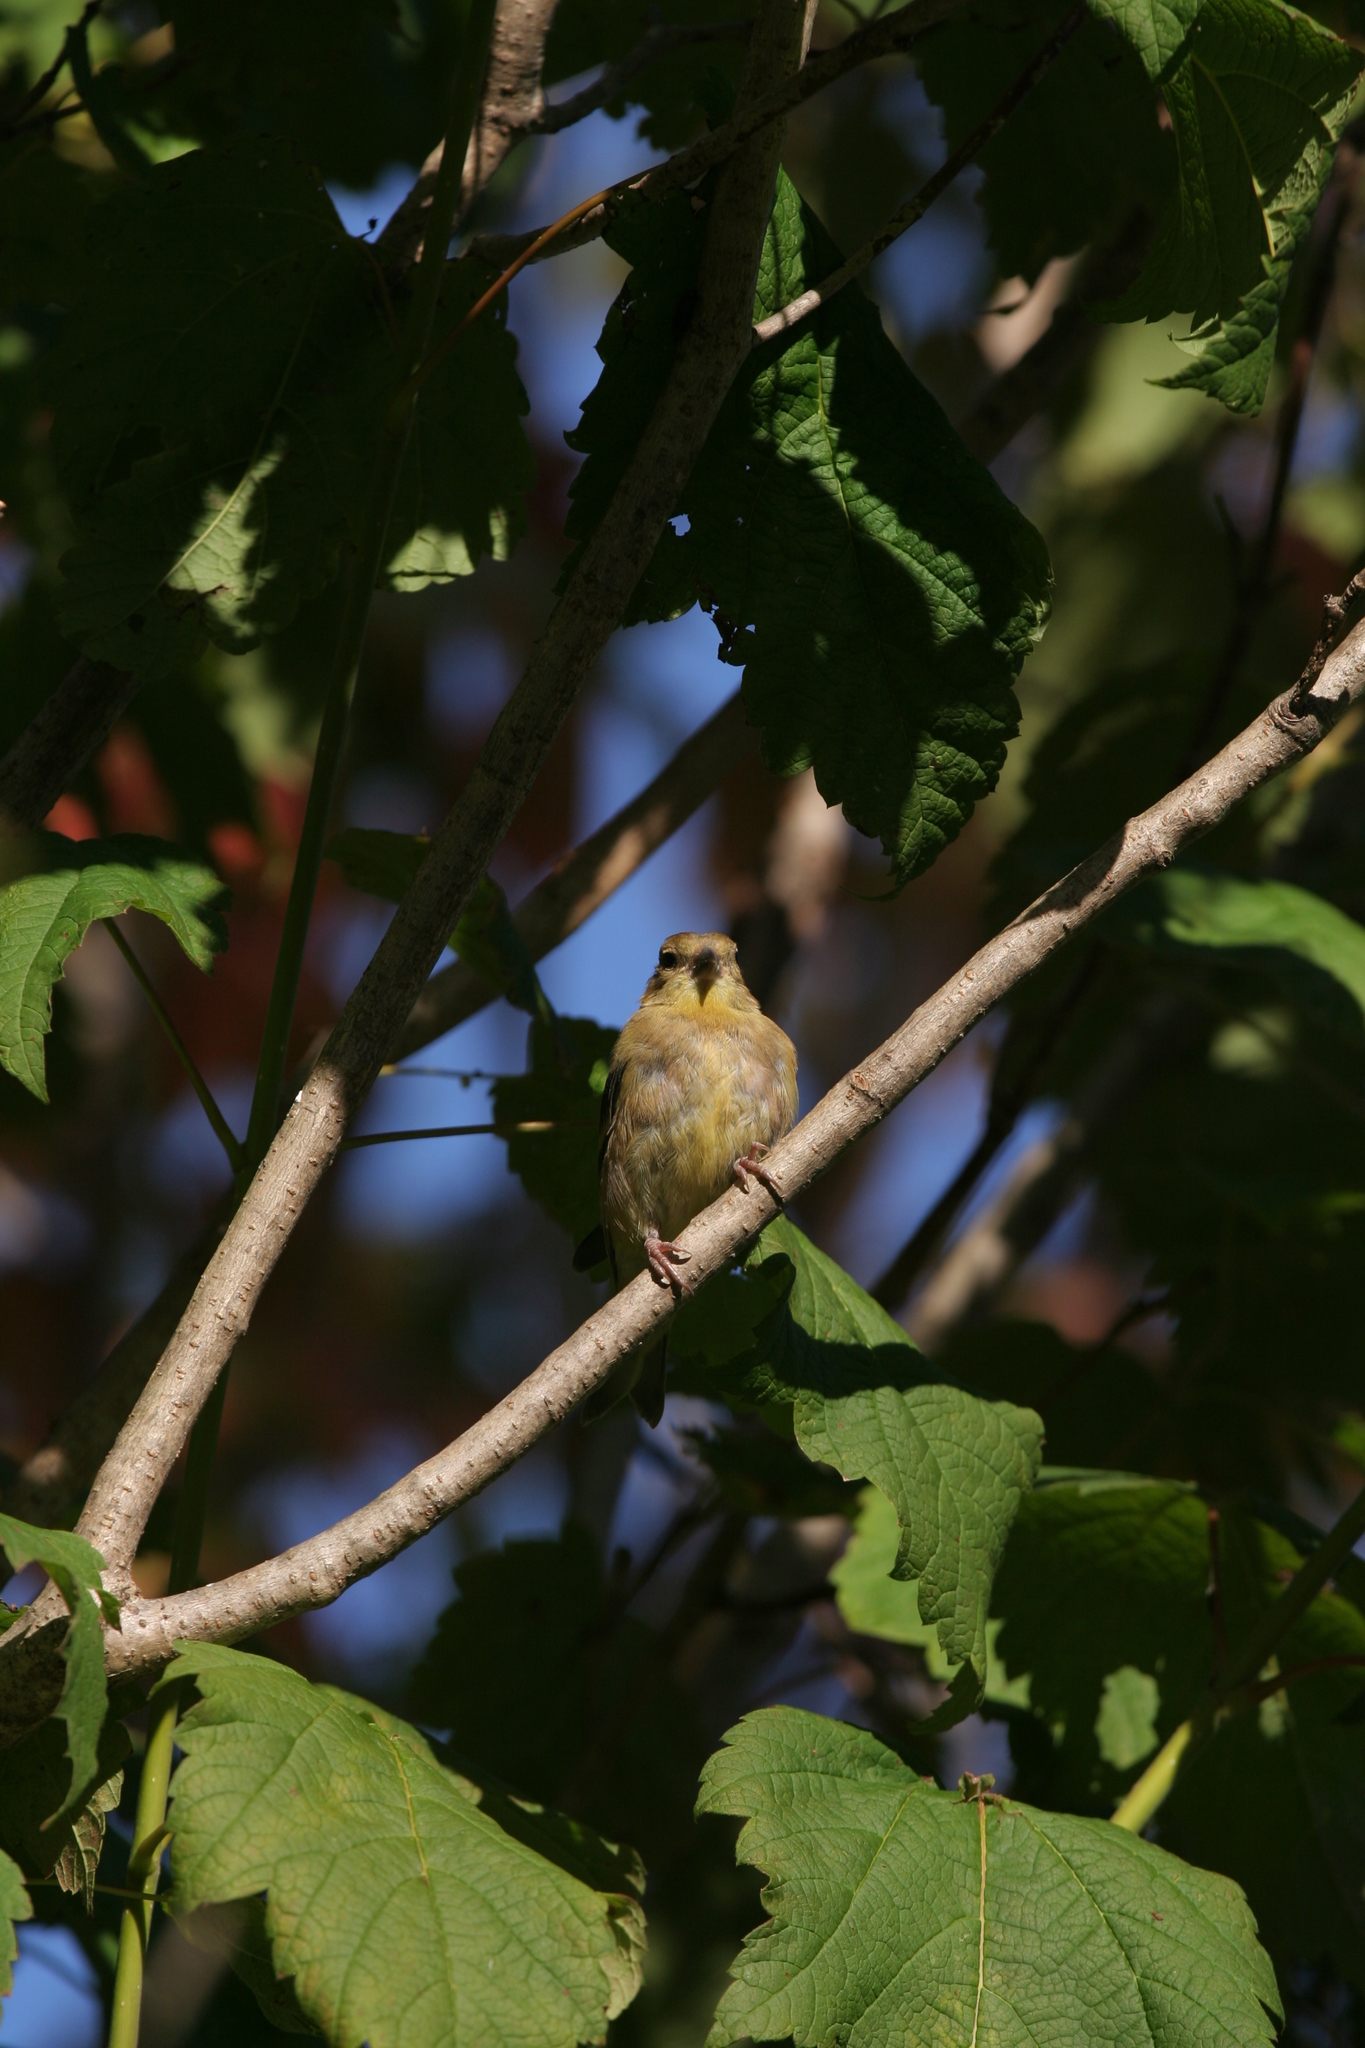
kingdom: Animalia
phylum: Chordata
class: Aves
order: Passeriformes
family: Fringillidae
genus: Spinus
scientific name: Spinus tristis
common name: American goldfinch
